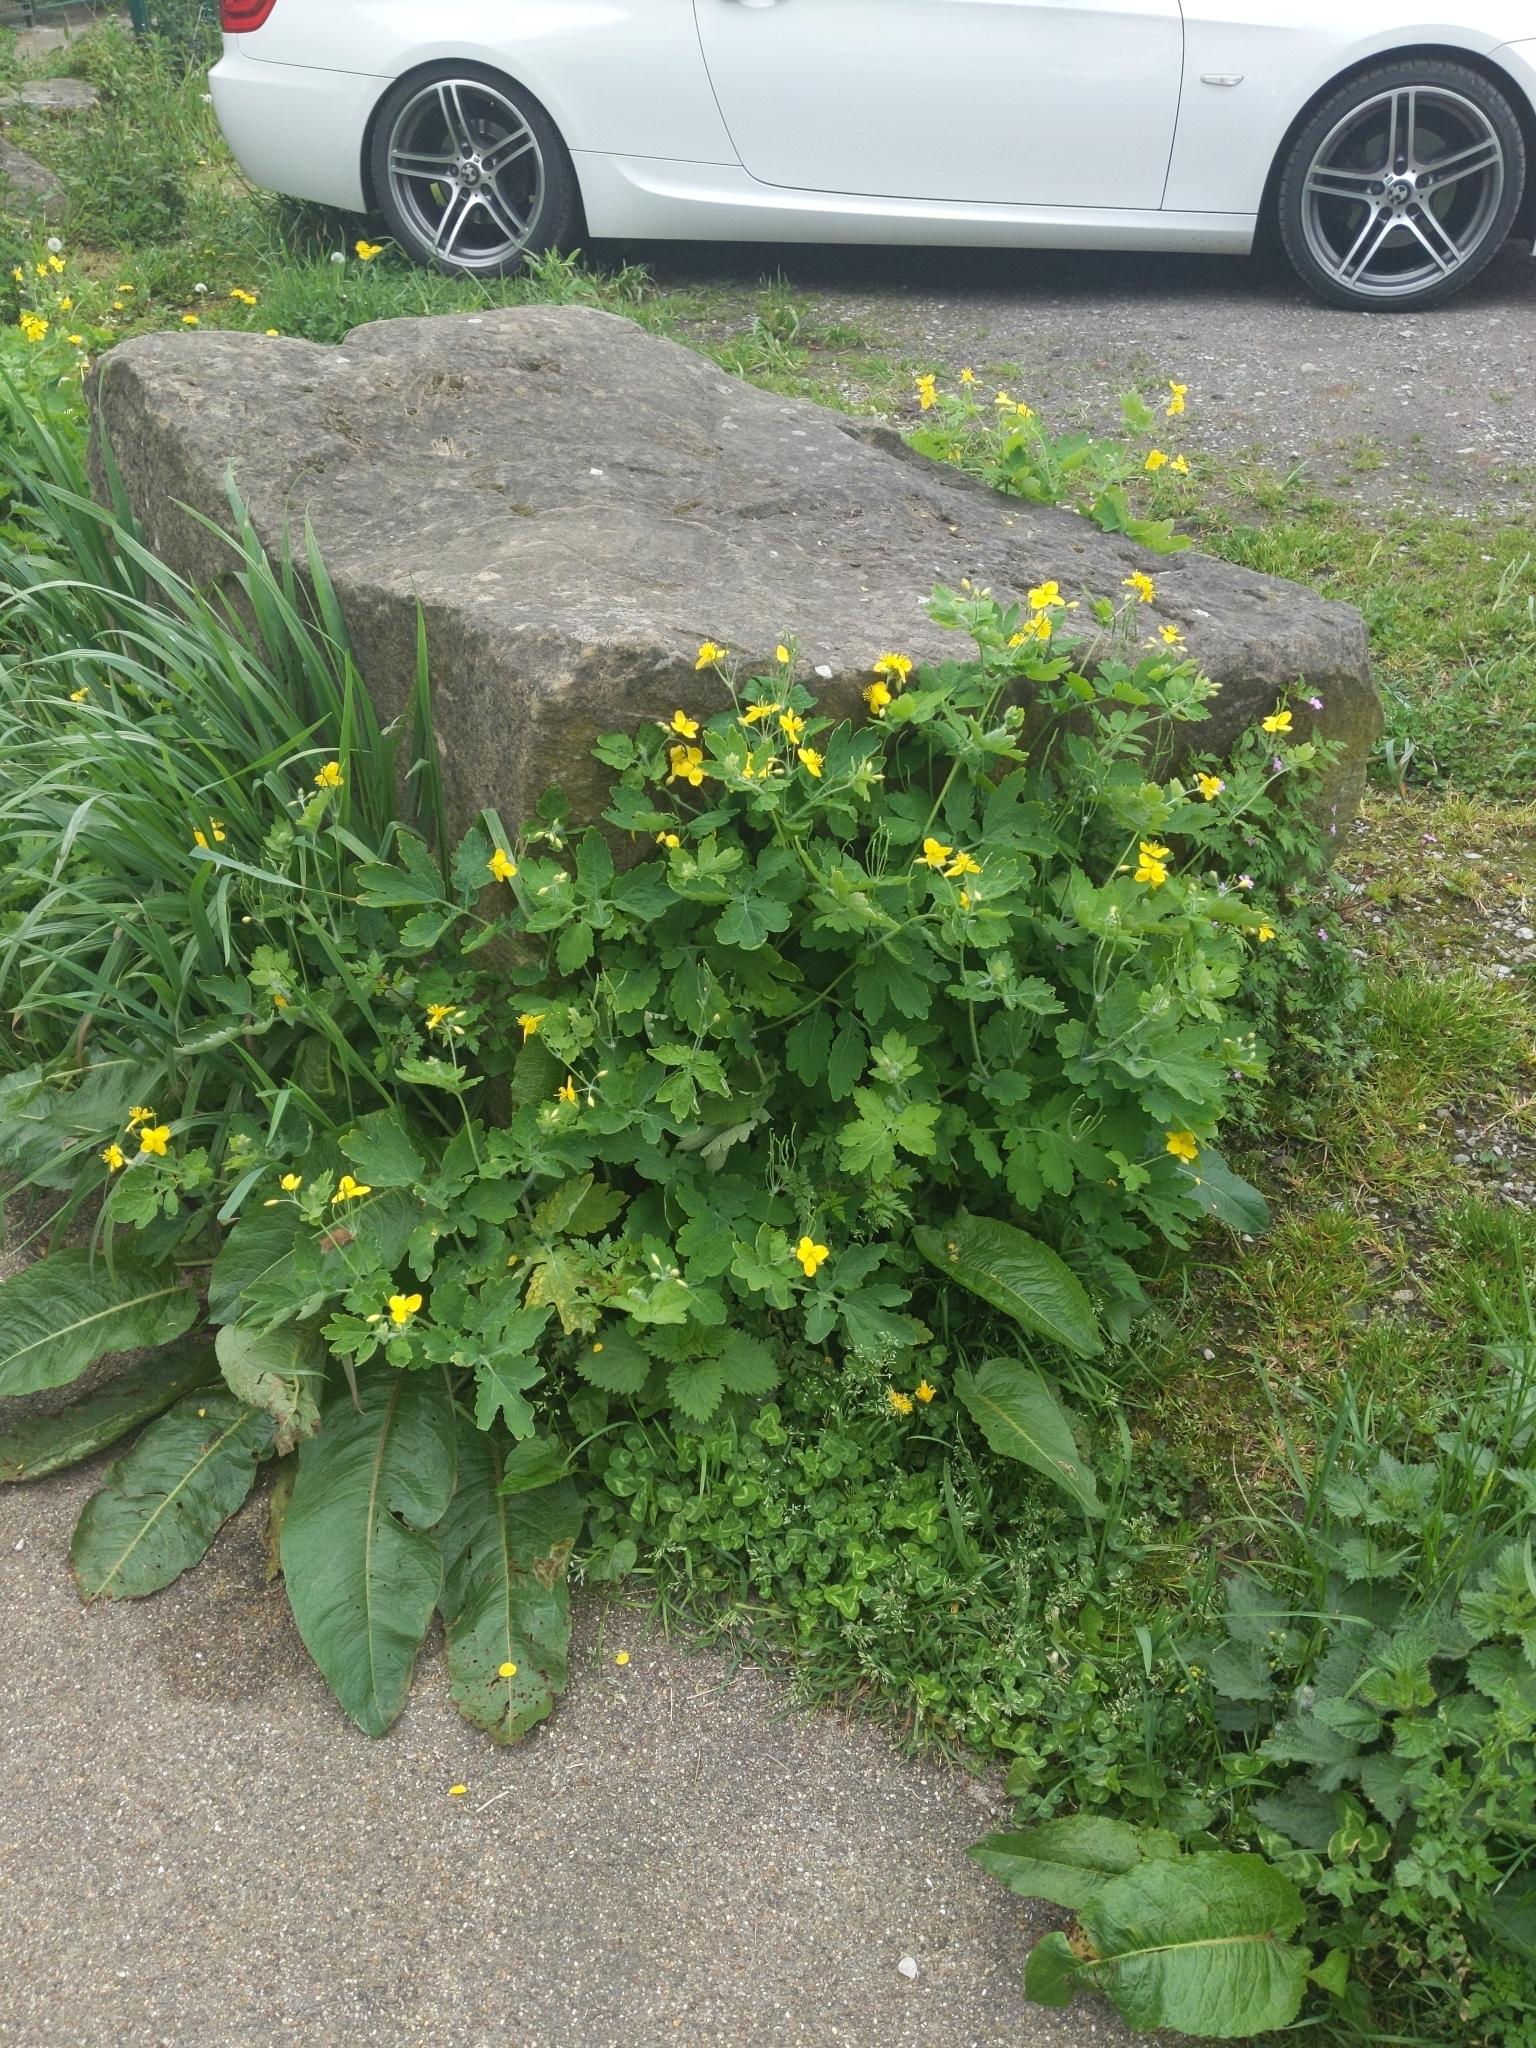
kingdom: Plantae
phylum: Tracheophyta
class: Magnoliopsida
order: Ranunculales
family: Papaveraceae
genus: Chelidonium
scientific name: Chelidonium majus
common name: Greater celandine
